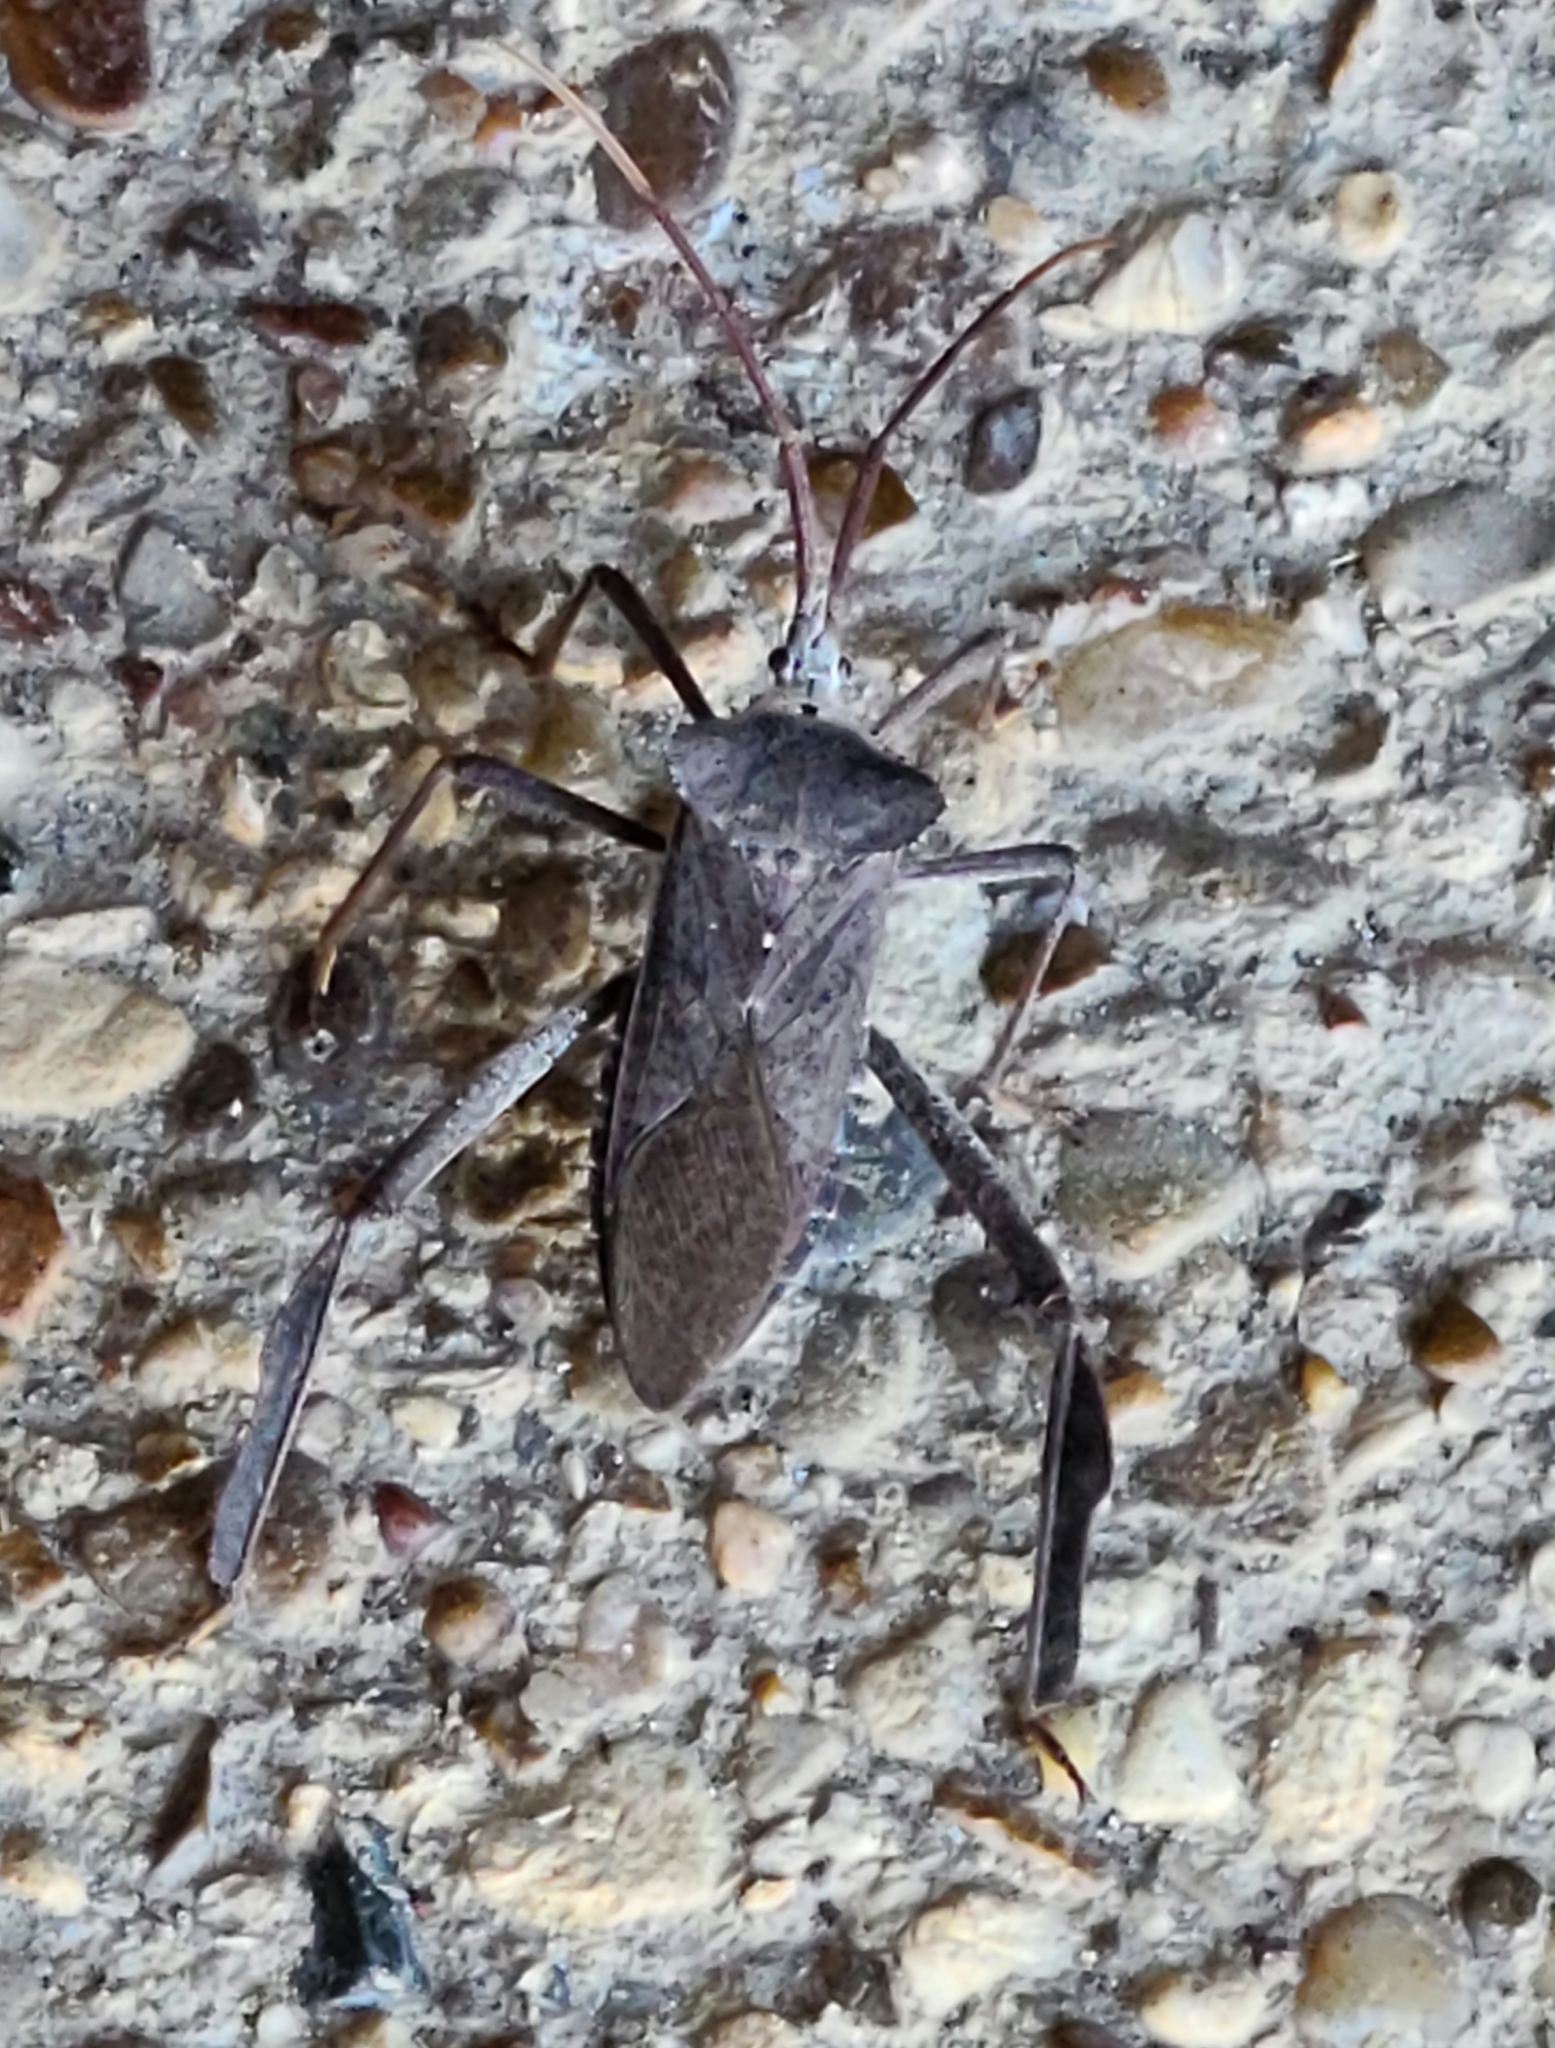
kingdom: Animalia
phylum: Arthropoda
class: Insecta
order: Hemiptera
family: Coreidae
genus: Acanthocephala
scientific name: Acanthocephala declivis
